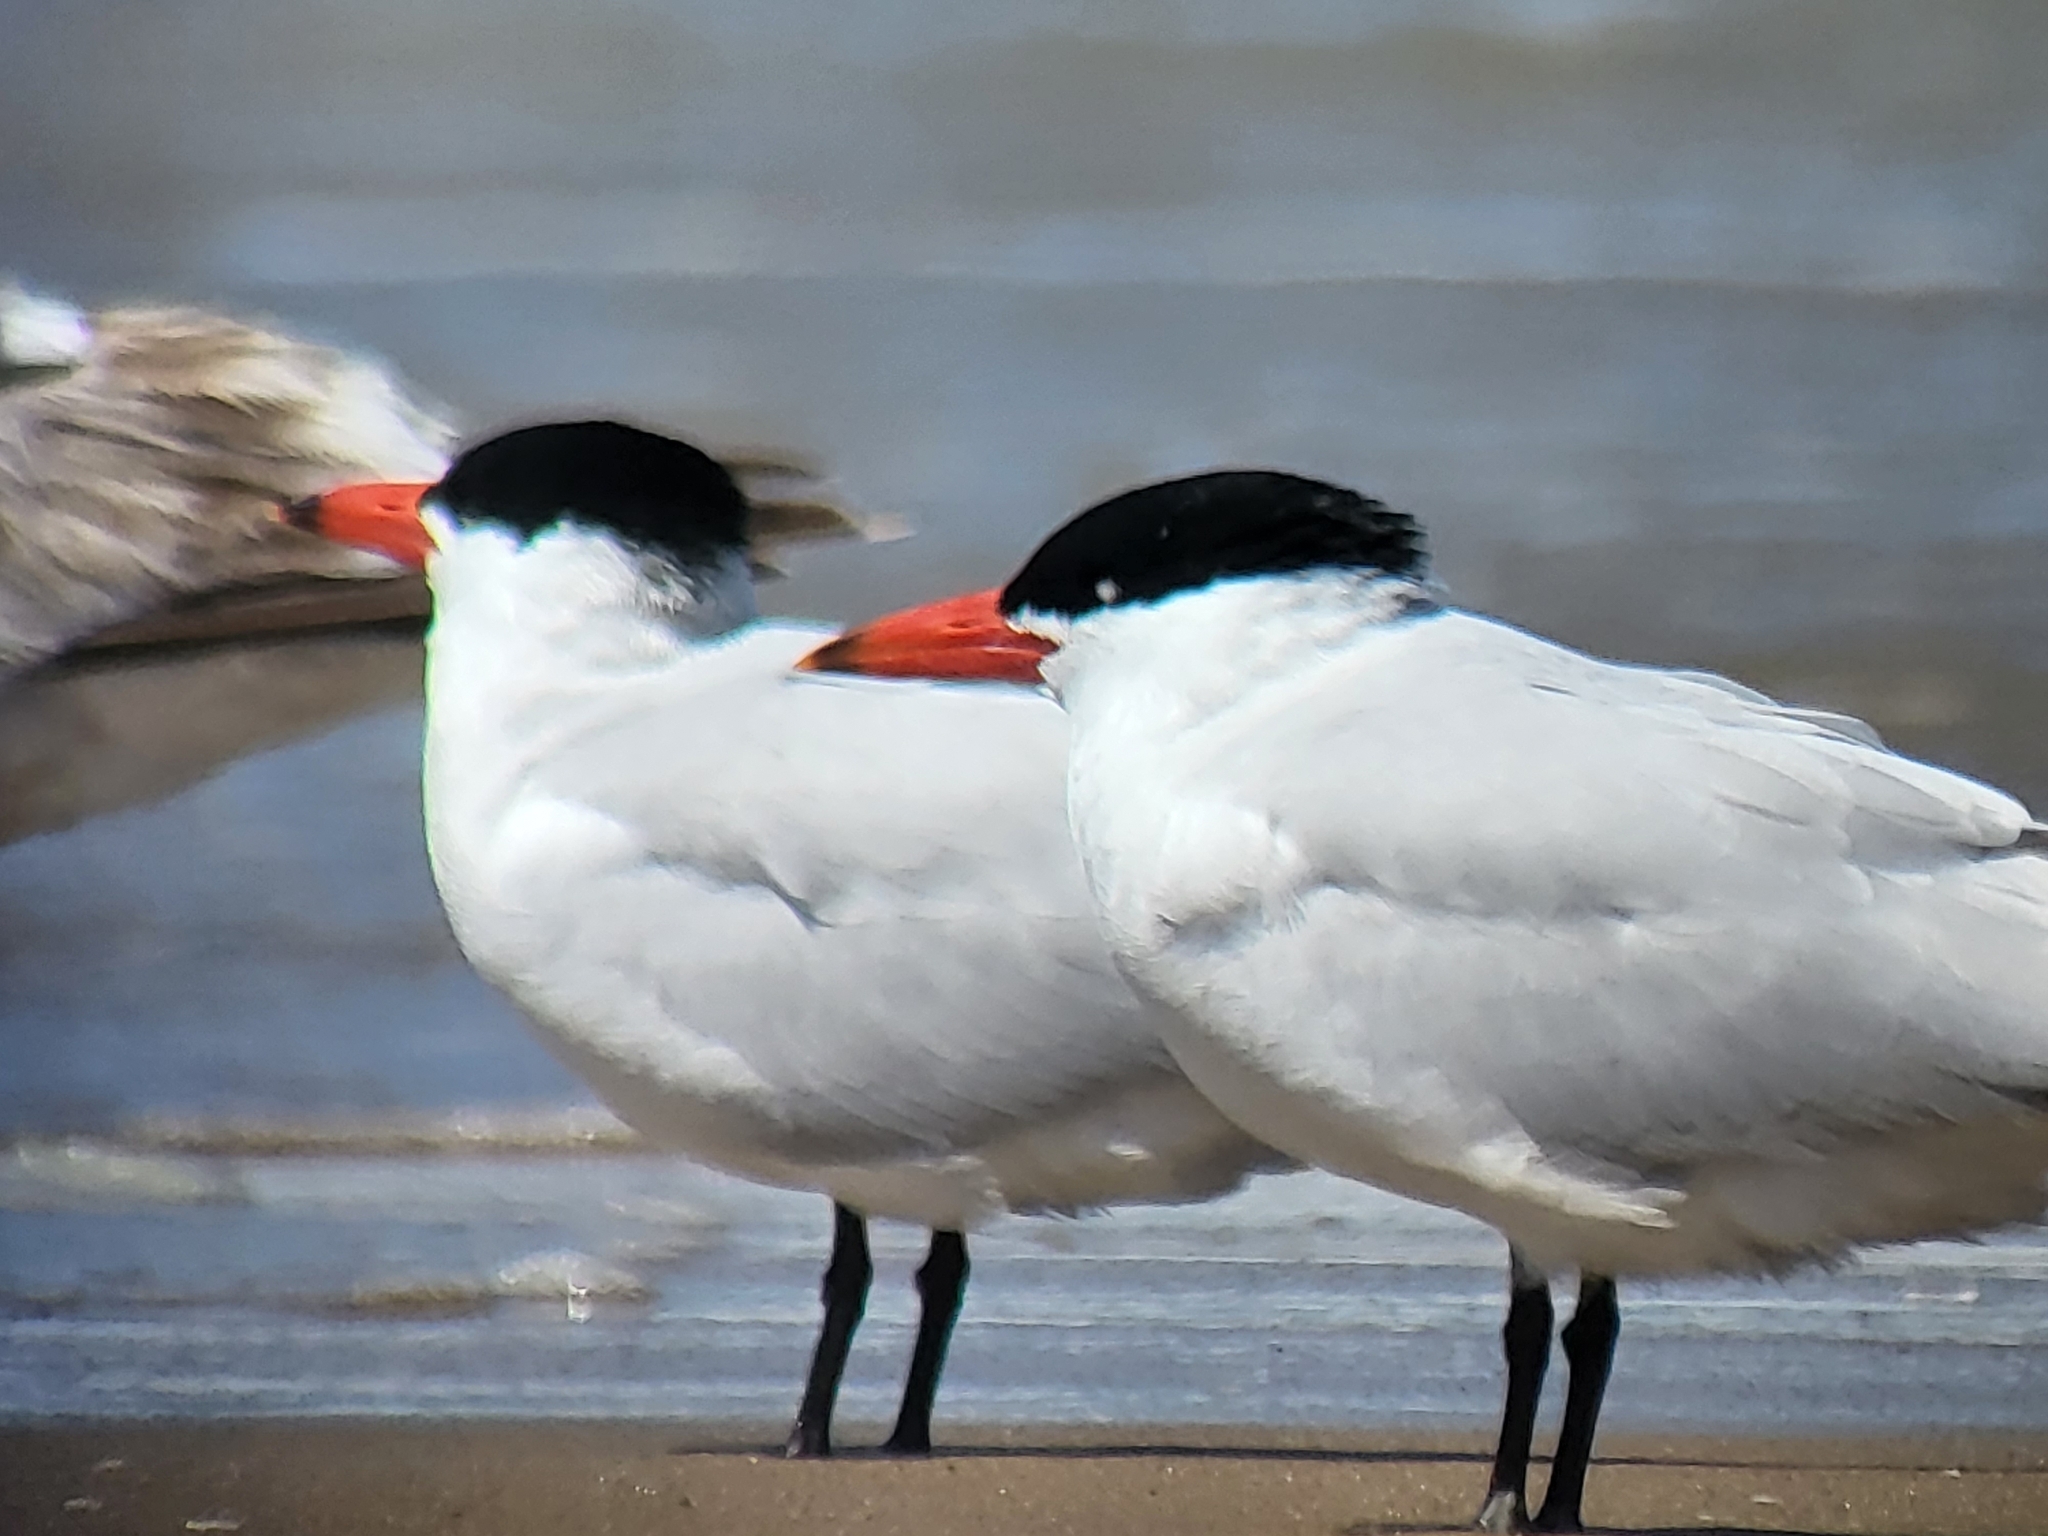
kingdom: Animalia
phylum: Chordata
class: Aves
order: Charadriiformes
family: Laridae
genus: Hydroprogne
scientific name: Hydroprogne caspia
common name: Caspian tern
